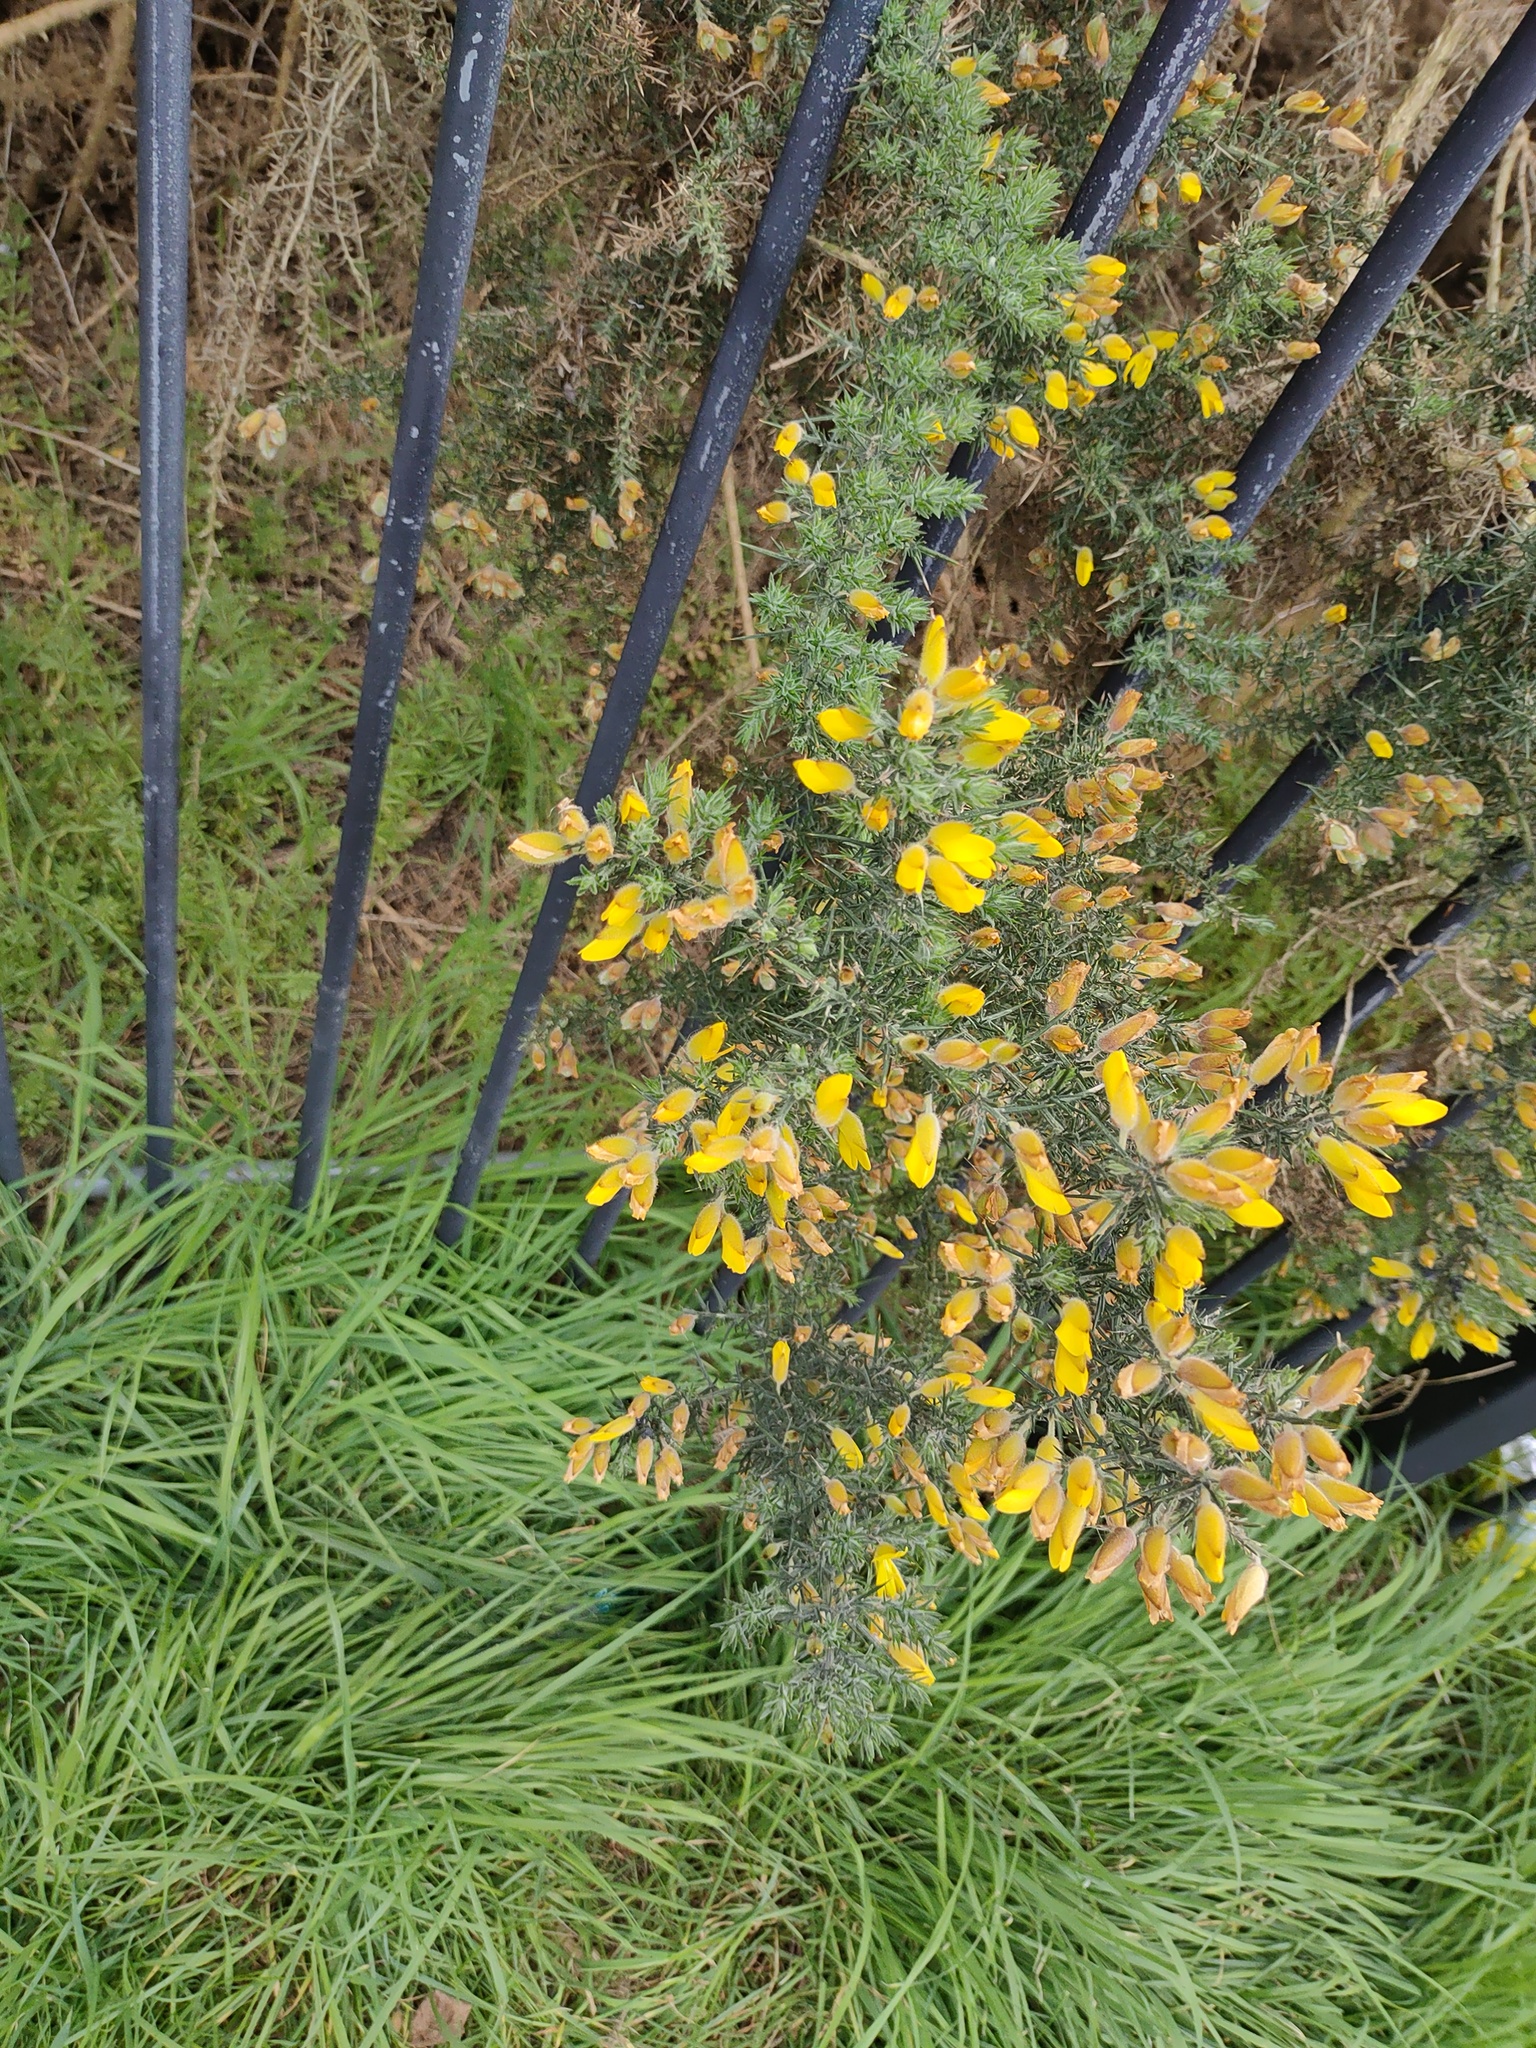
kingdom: Plantae
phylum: Tracheophyta
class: Magnoliopsida
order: Fabales
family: Fabaceae
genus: Ulex
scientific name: Ulex europaeus
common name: Common gorse
